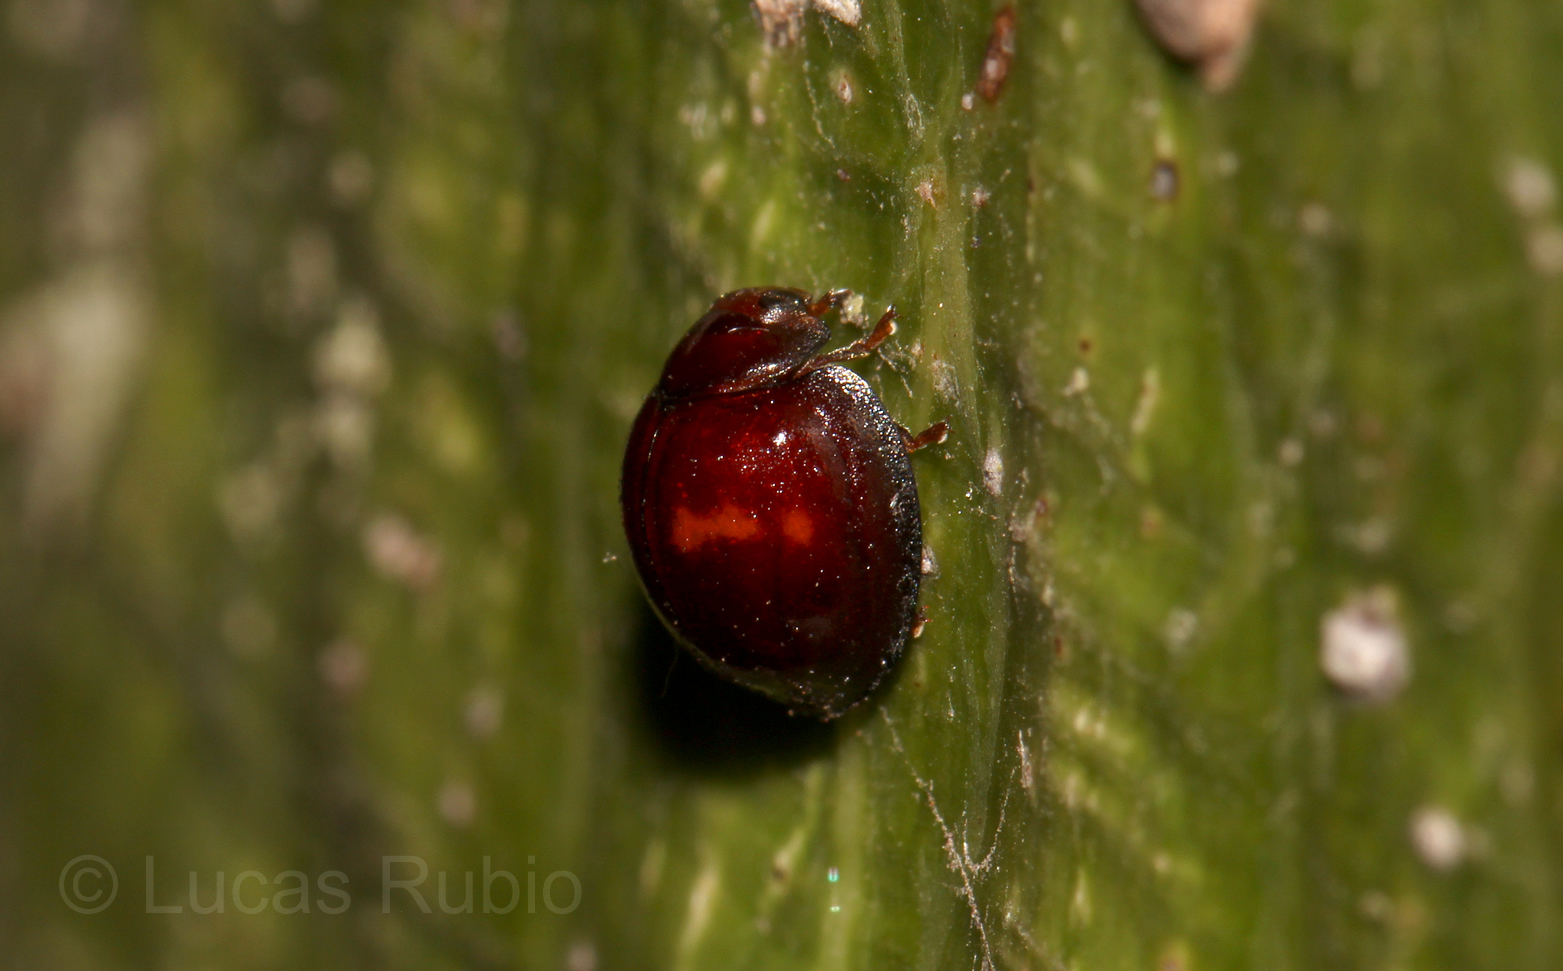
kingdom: Animalia
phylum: Arthropoda
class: Insecta
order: Coleoptera
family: Coccinellidae
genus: Chilocorus
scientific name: Chilocorus bipustulatus
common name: Heather ladybird
